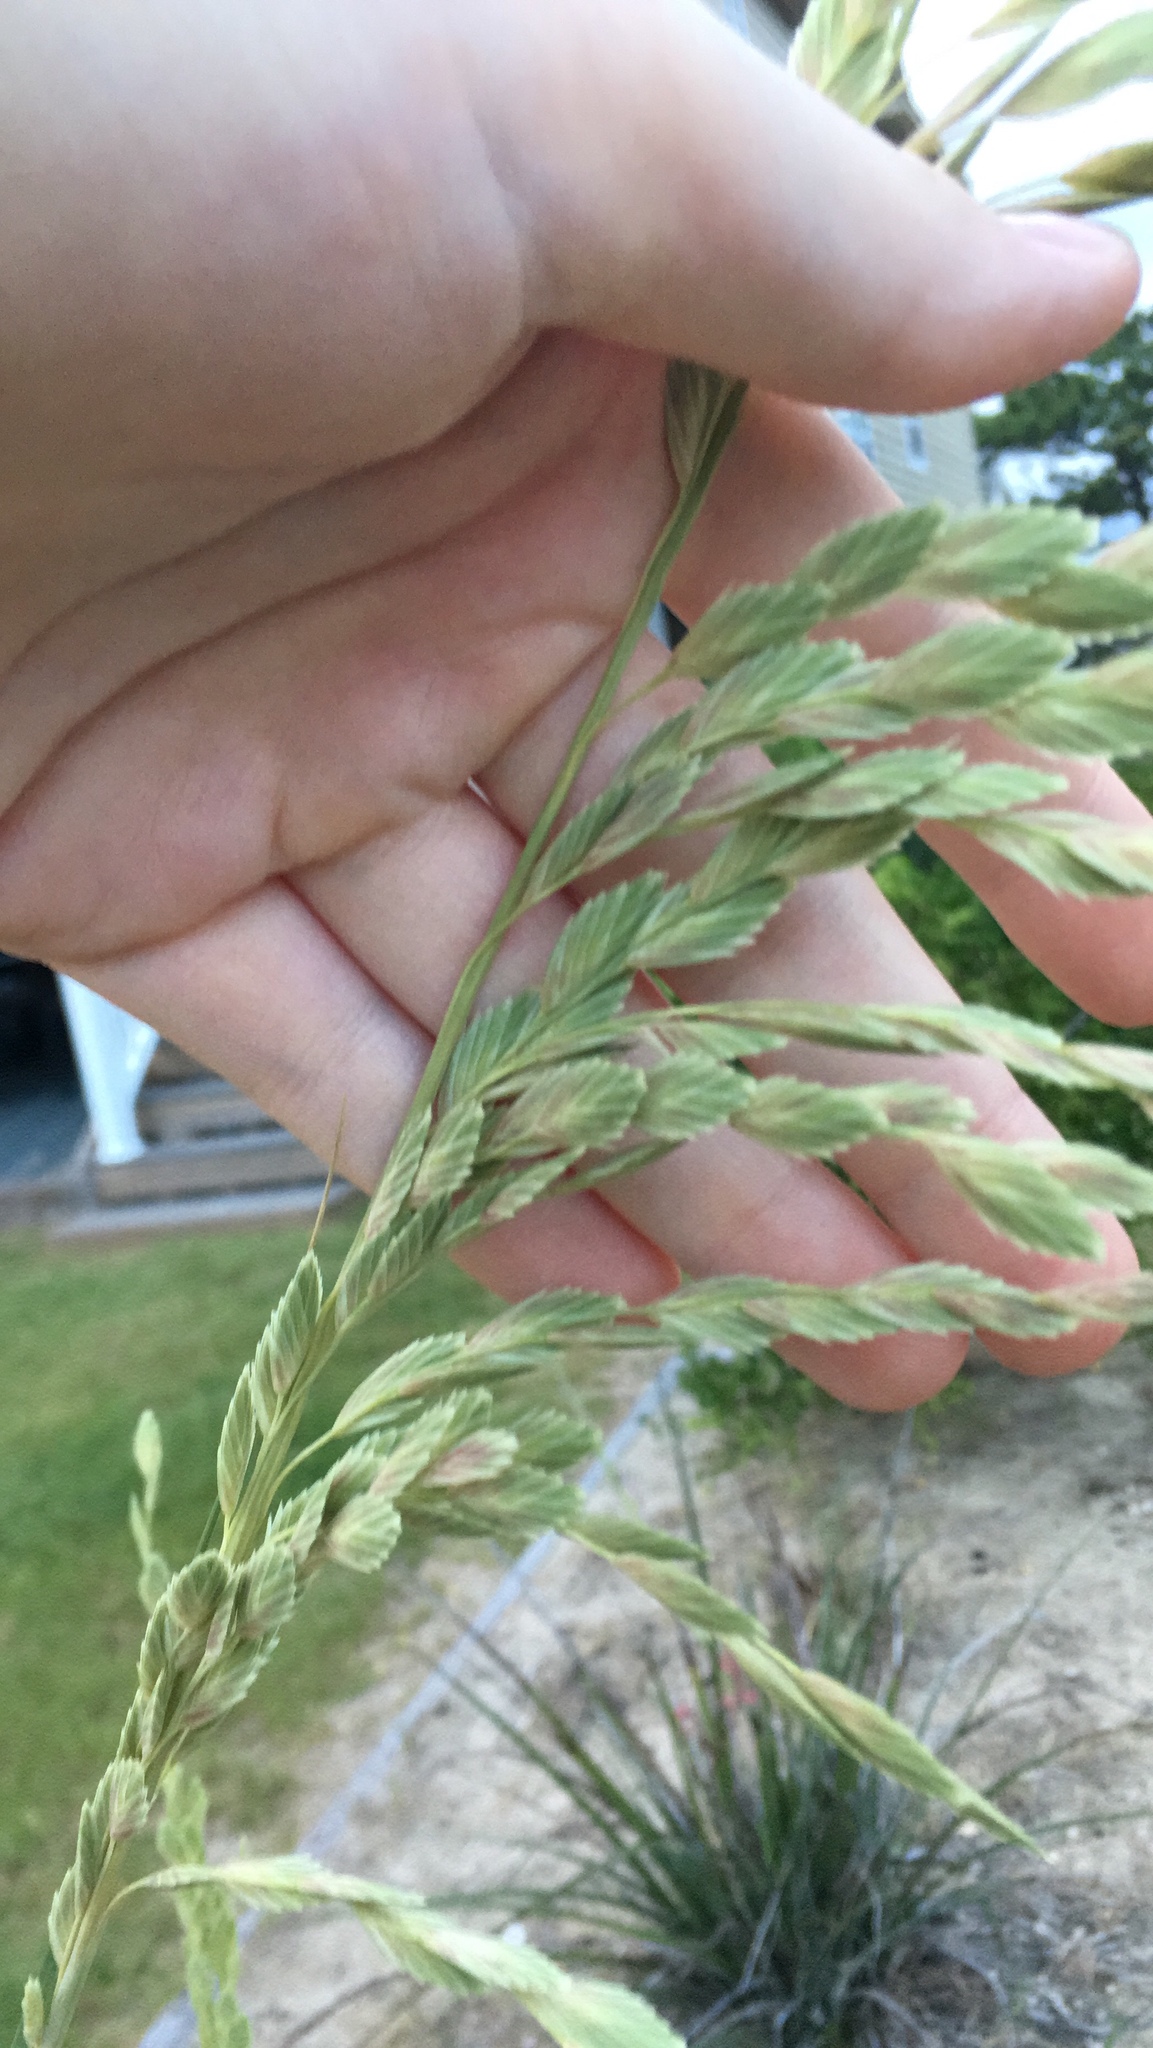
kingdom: Plantae
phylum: Tracheophyta
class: Liliopsida
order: Poales
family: Poaceae
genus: Uniola
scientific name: Uniola paniculata
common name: Seaside-oats
